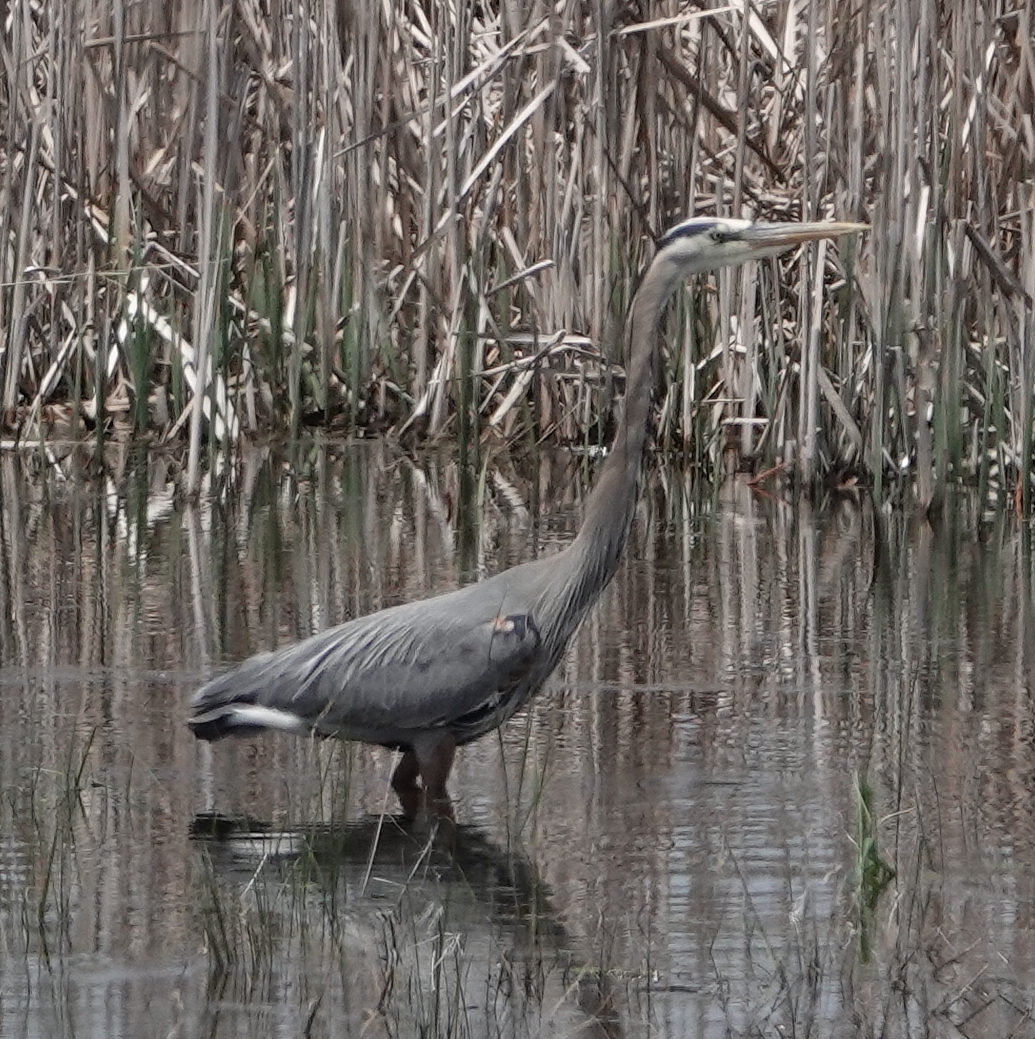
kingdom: Animalia
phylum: Chordata
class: Aves
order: Pelecaniformes
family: Ardeidae
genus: Ardea
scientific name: Ardea herodias
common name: Great blue heron
